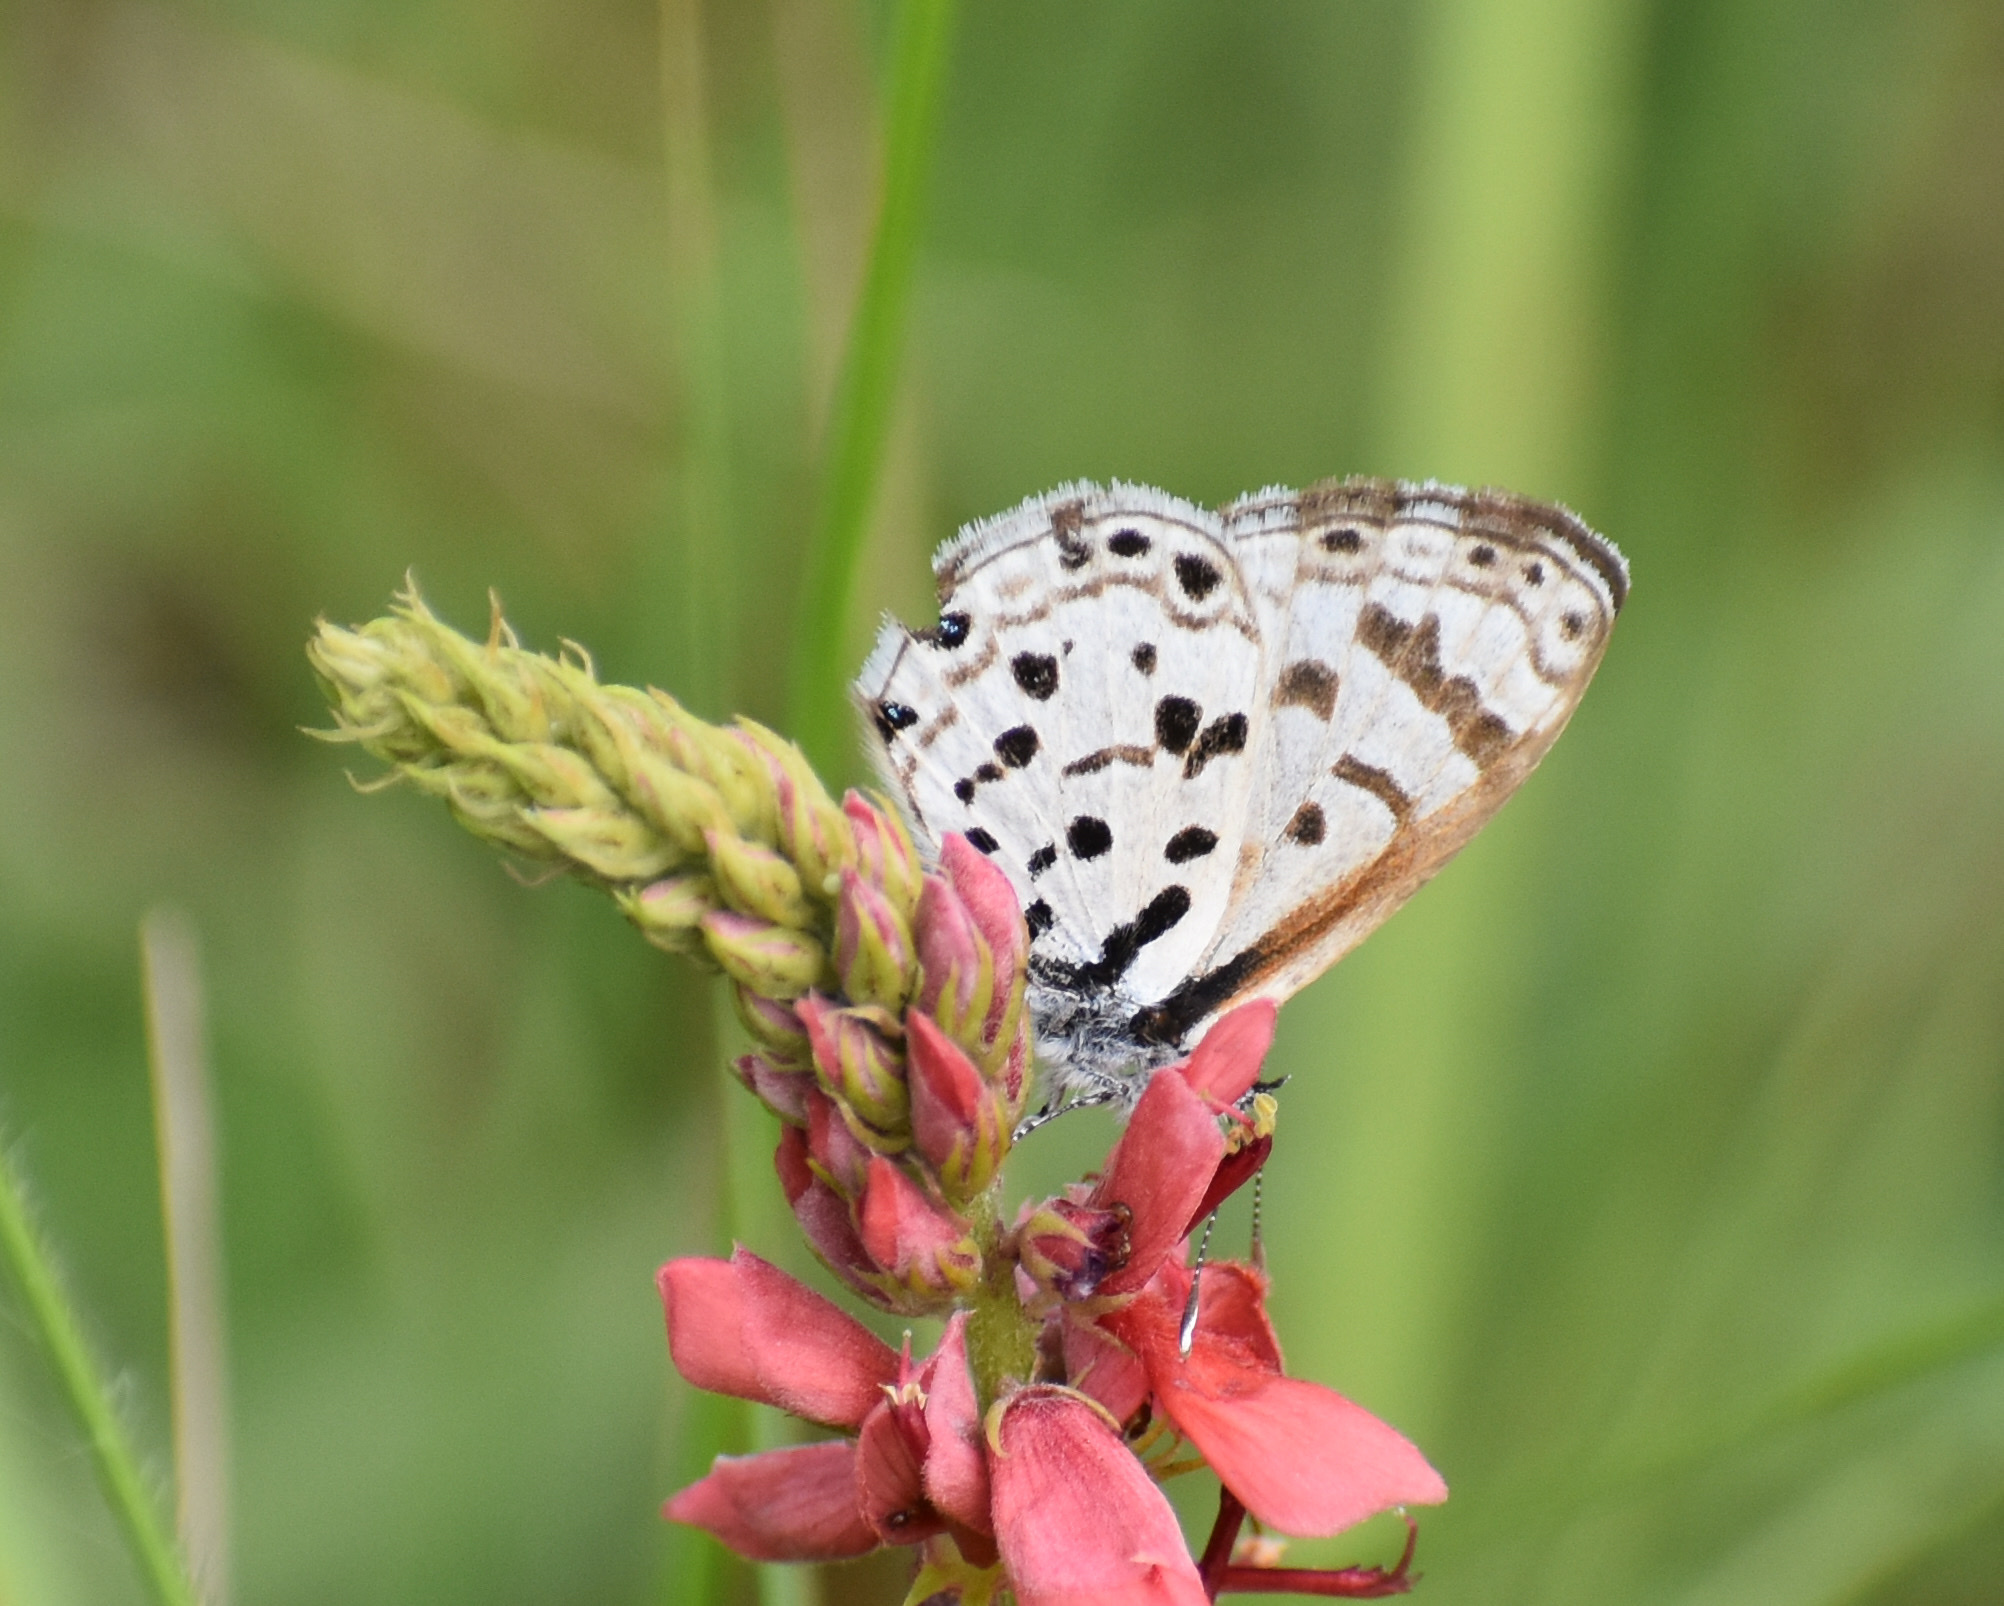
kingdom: Animalia
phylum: Arthropoda
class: Insecta
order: Lepidoptera
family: Lycaenidae
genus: Azanus
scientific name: Azanus natalensis
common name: Natal babul blue
